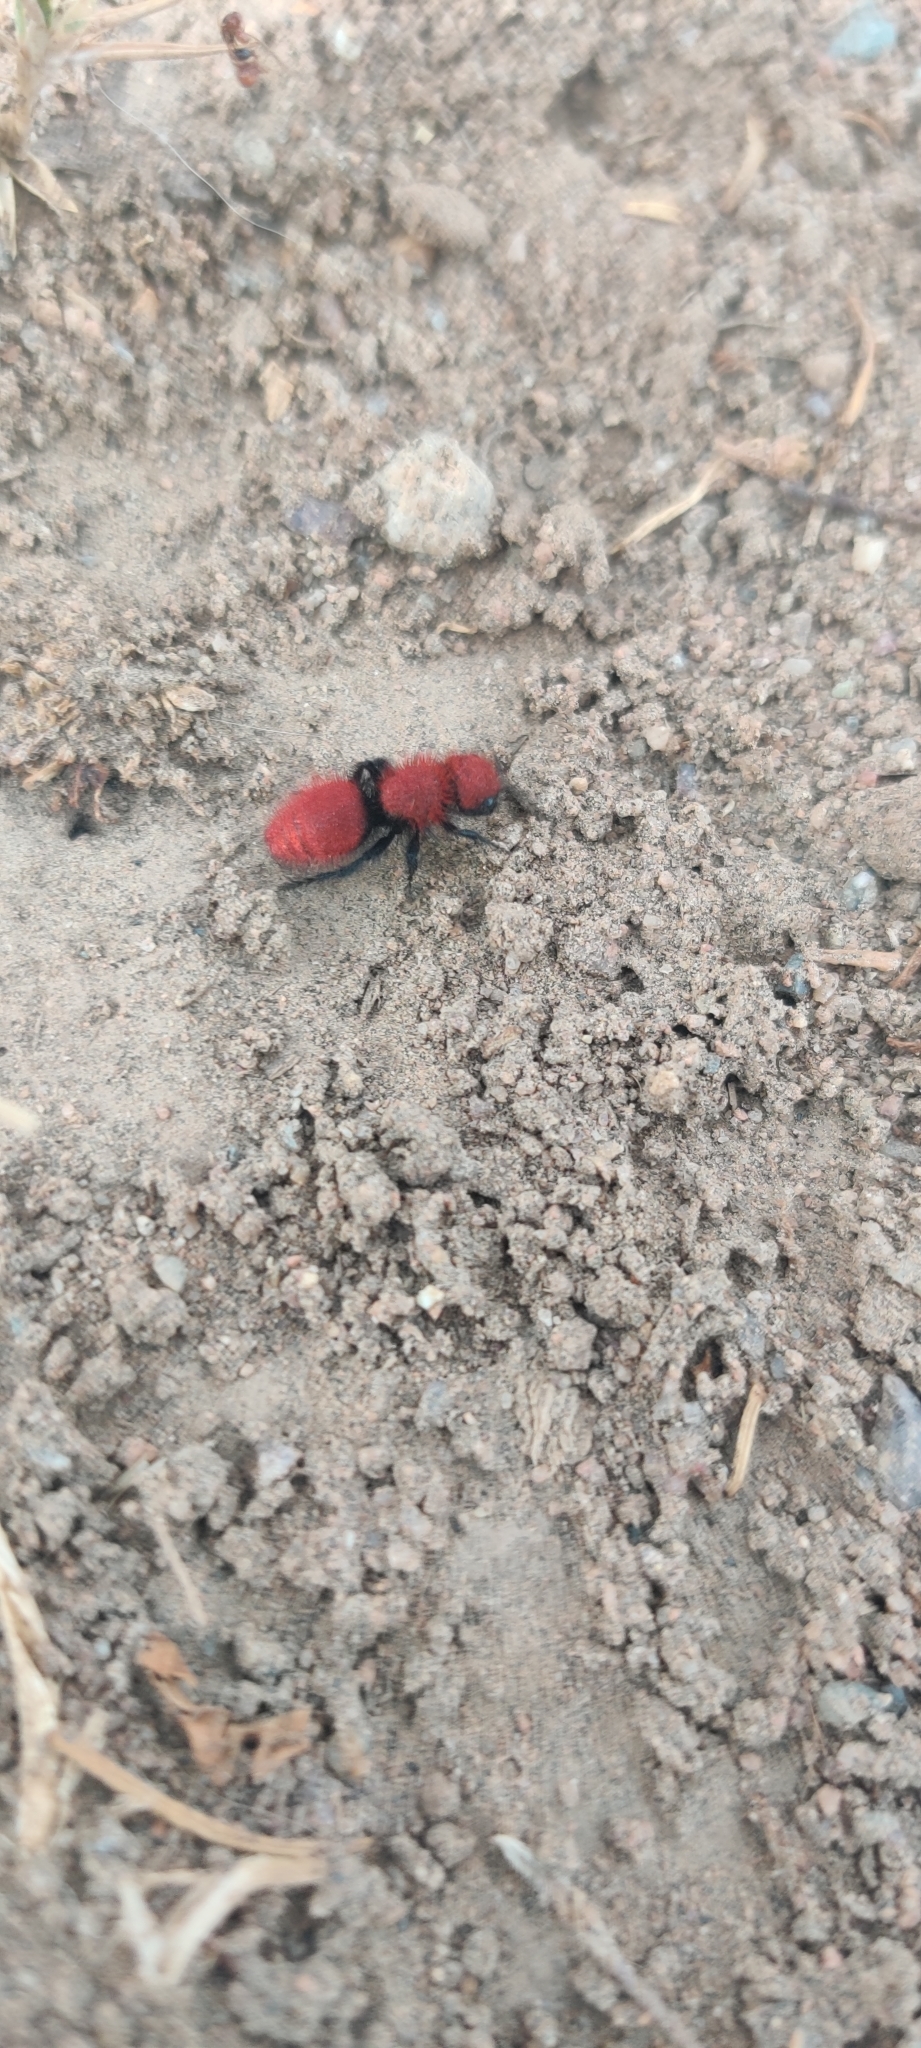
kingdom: Animalia
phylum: Arthropoda
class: Insecta
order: Hymenoptera
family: Mutillidae
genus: Dasymutilla
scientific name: Dasymutilla
